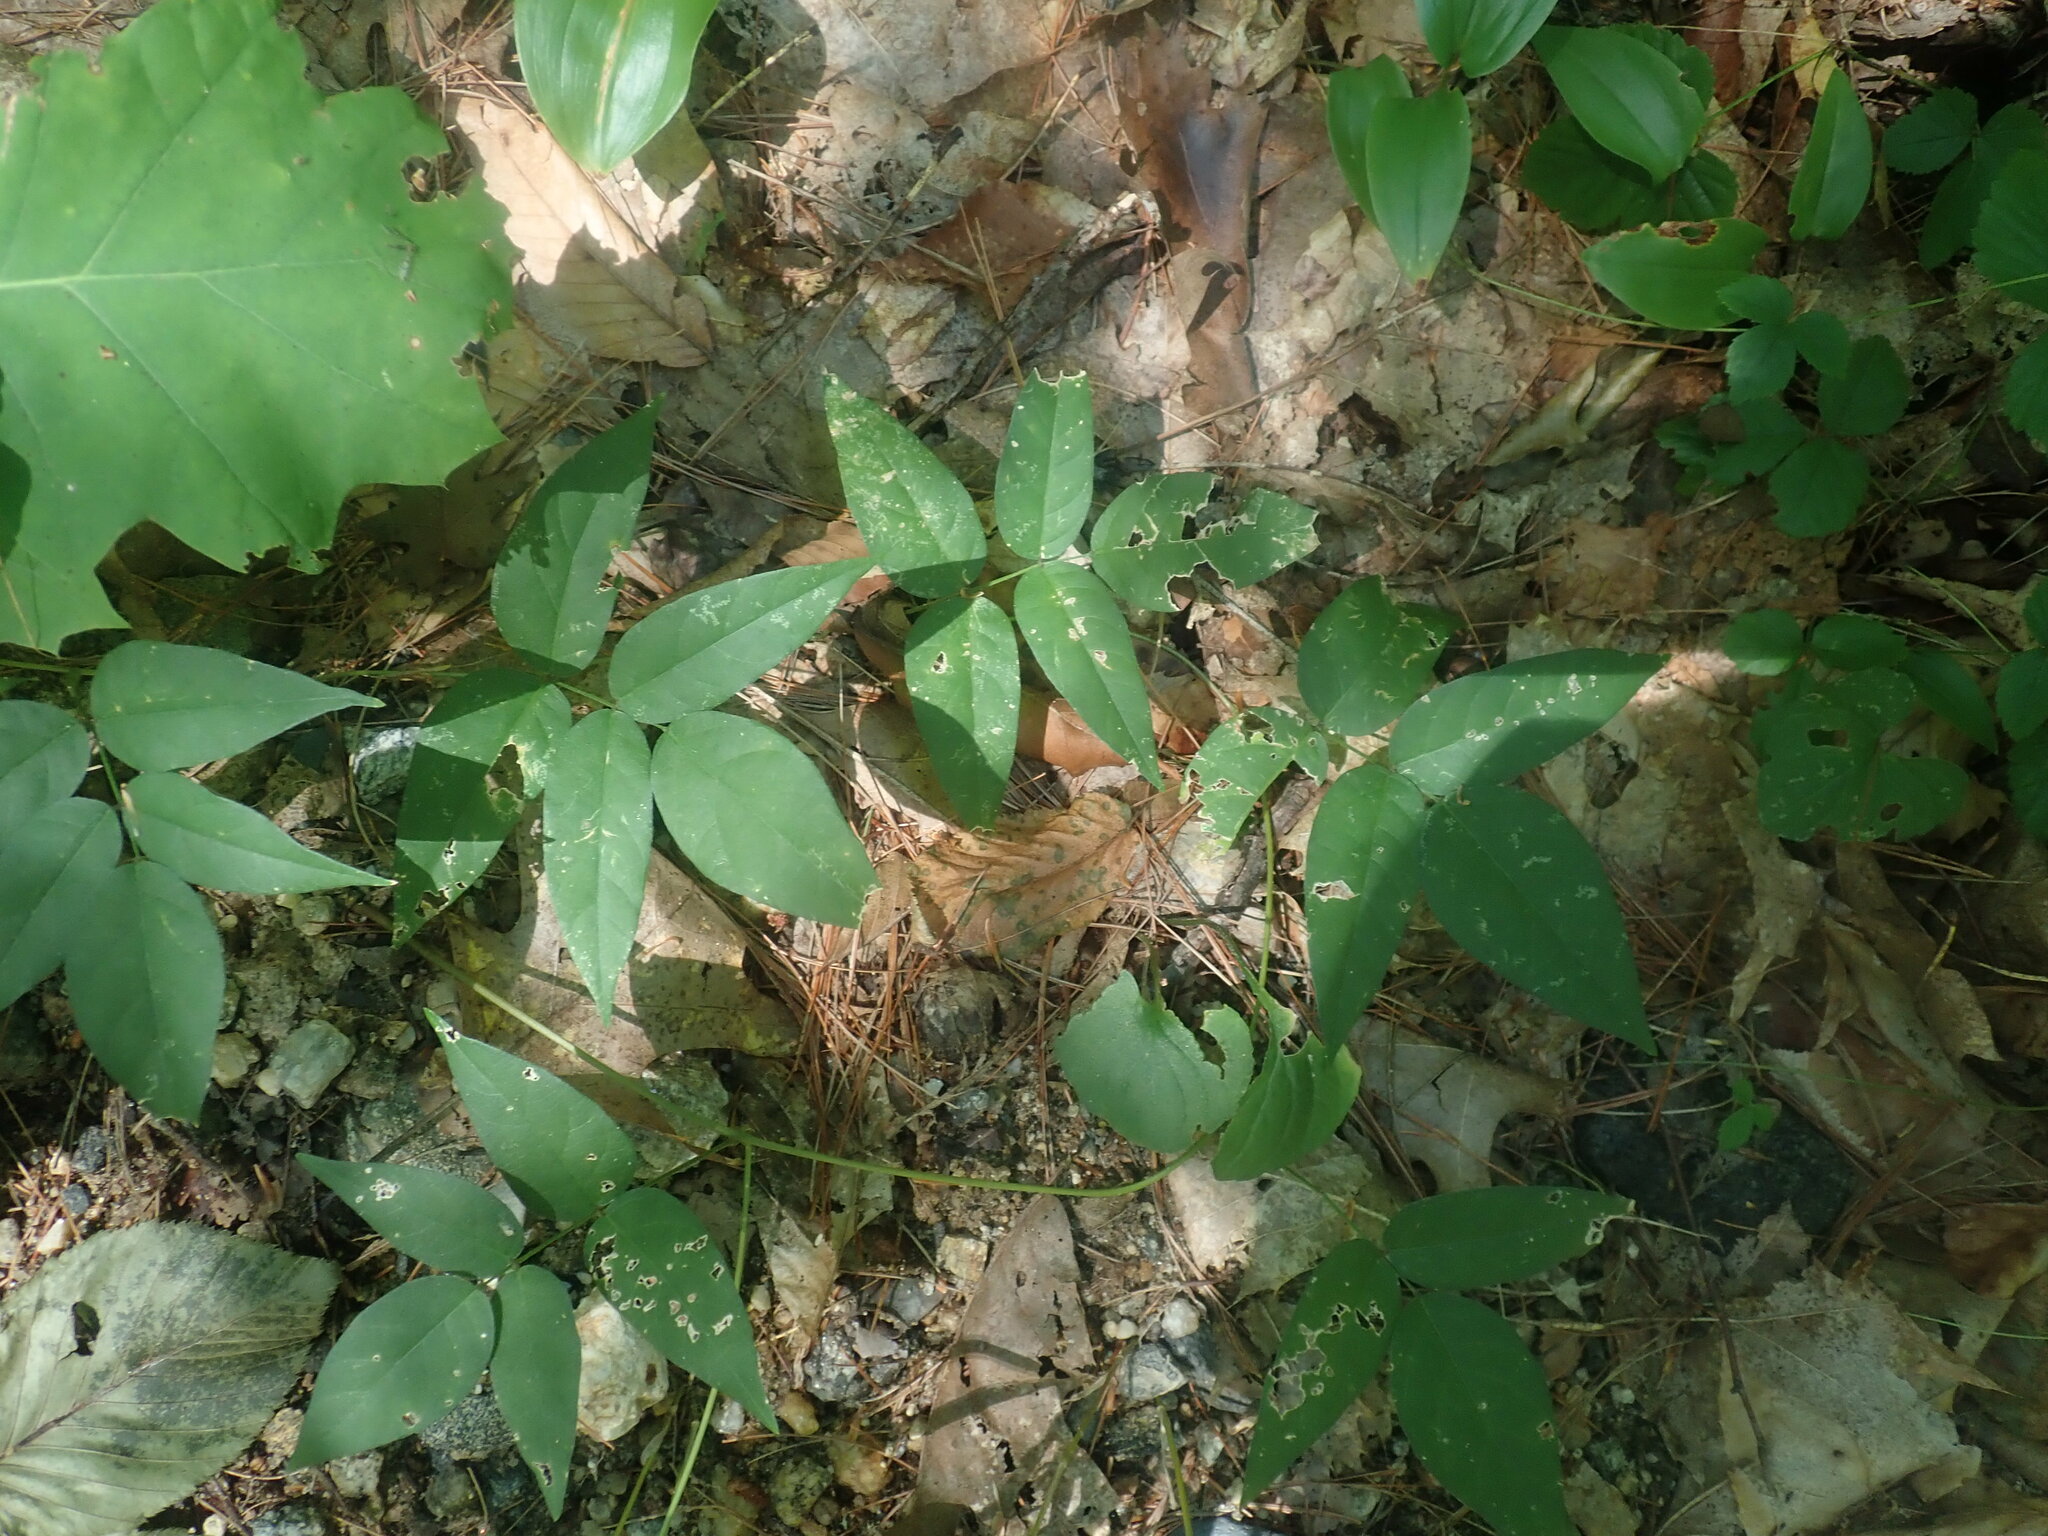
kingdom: Plantae
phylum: Tracheophyta
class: Magnoliopsida
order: Fabales
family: Fabaceae
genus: Apios
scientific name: Apios americana
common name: American potato-bean
